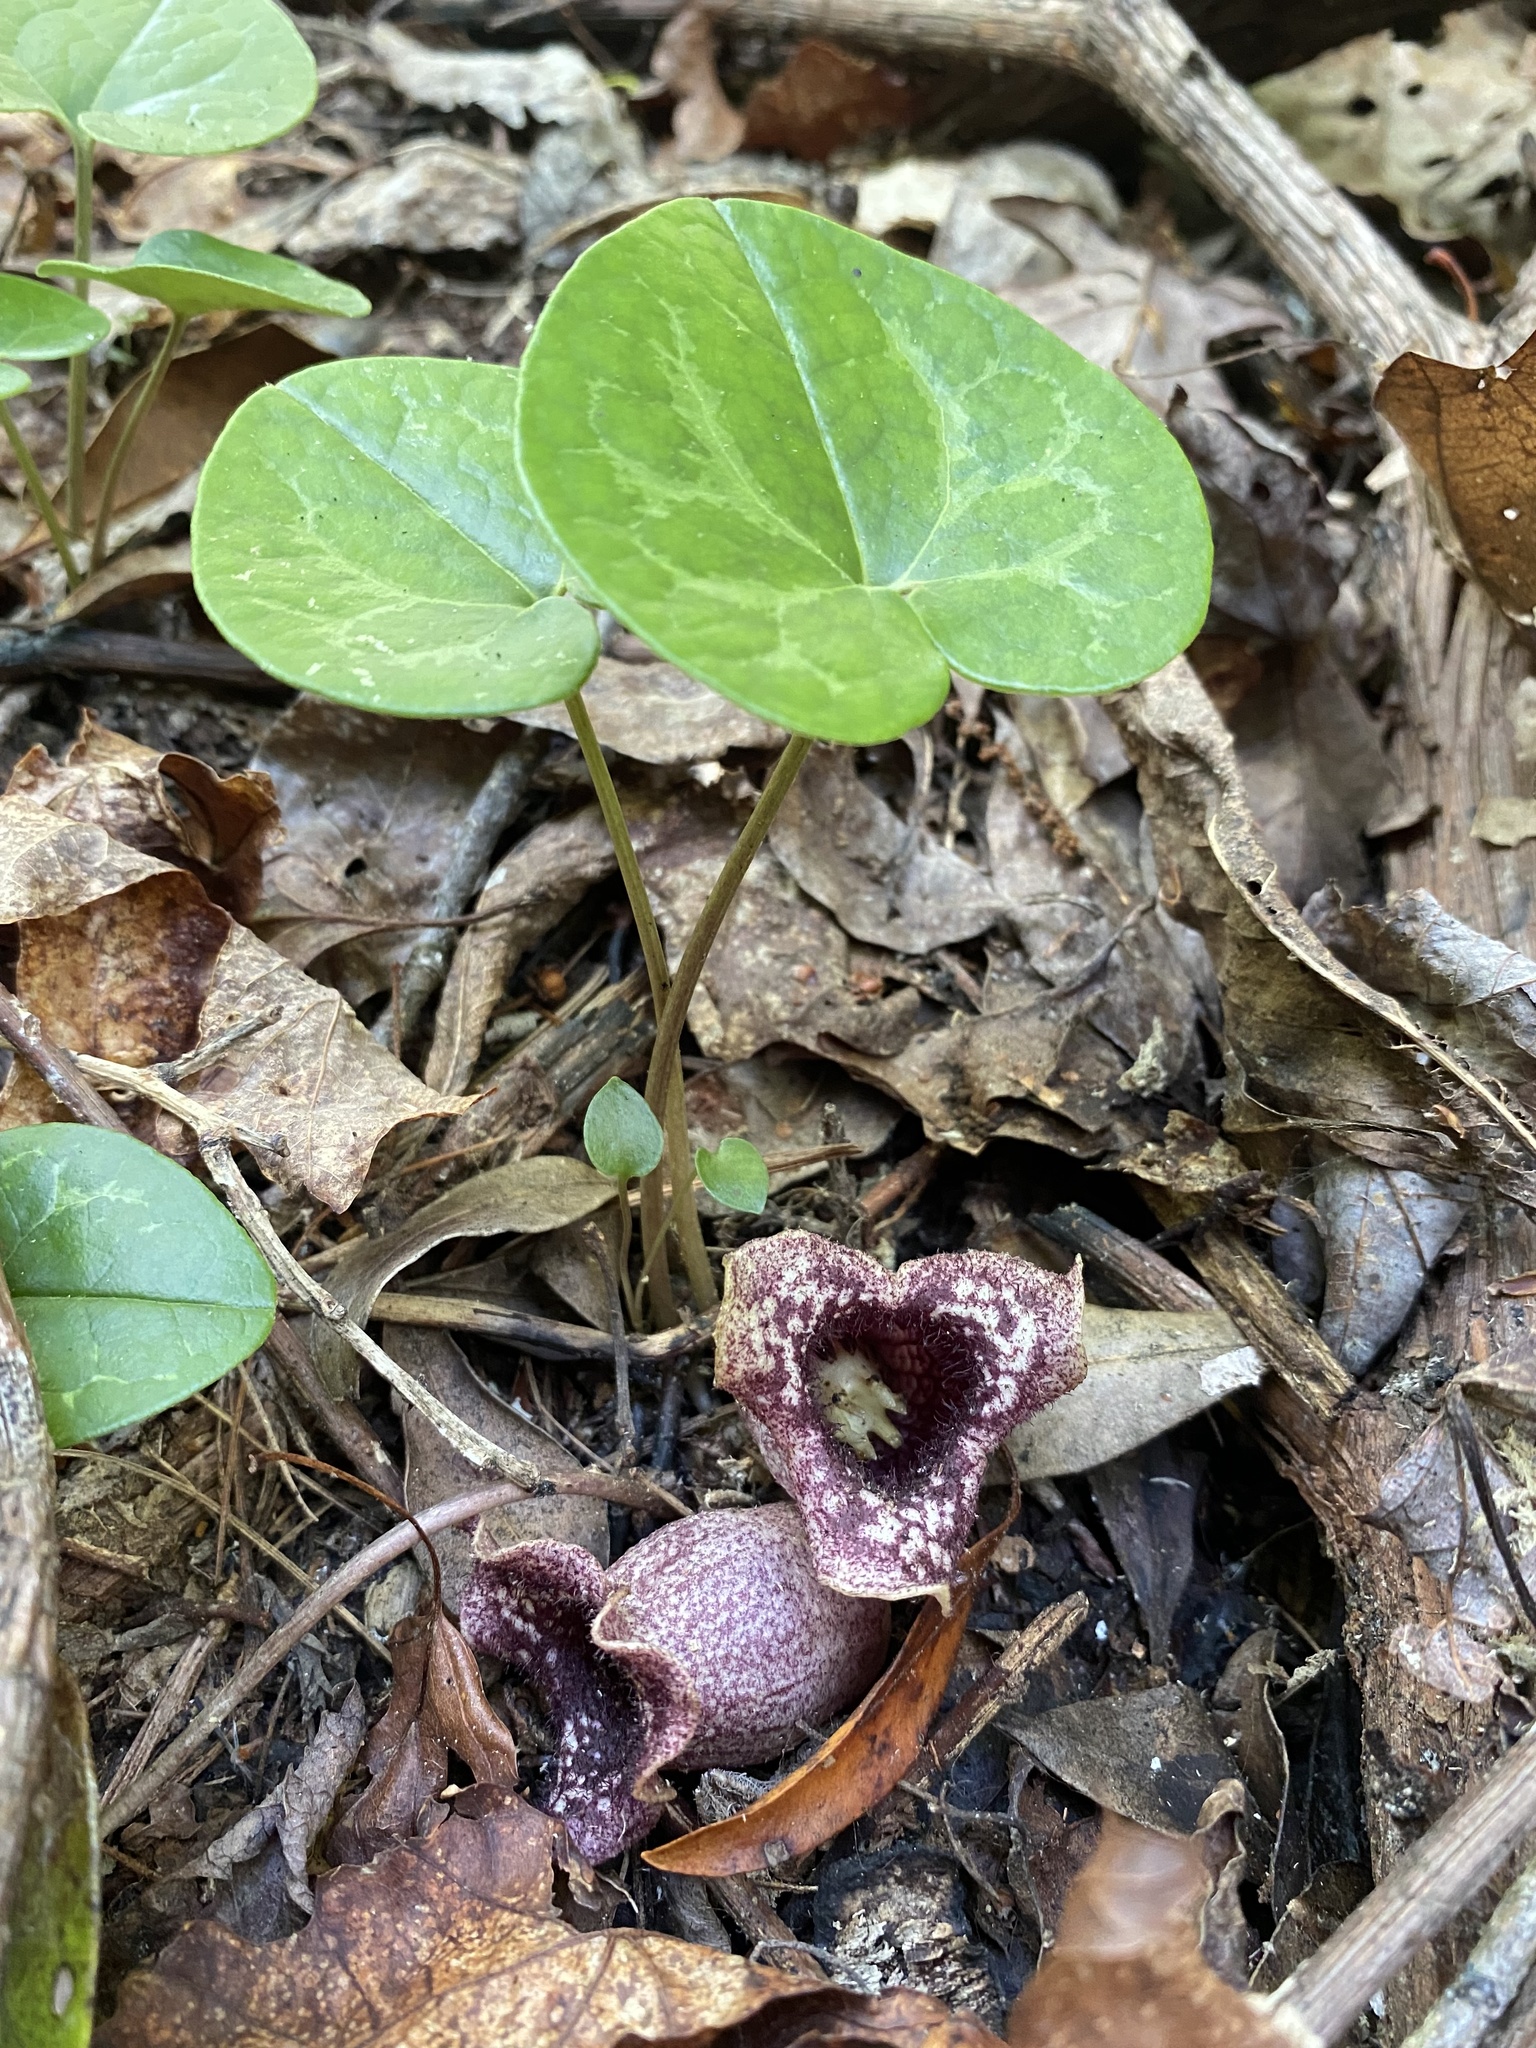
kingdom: Plantae
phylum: Tracheophyta
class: Magnoliopsida
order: Piperales
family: Aristolochiaceae
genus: Hexastylis
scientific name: Hexastylis shuttleworthii
